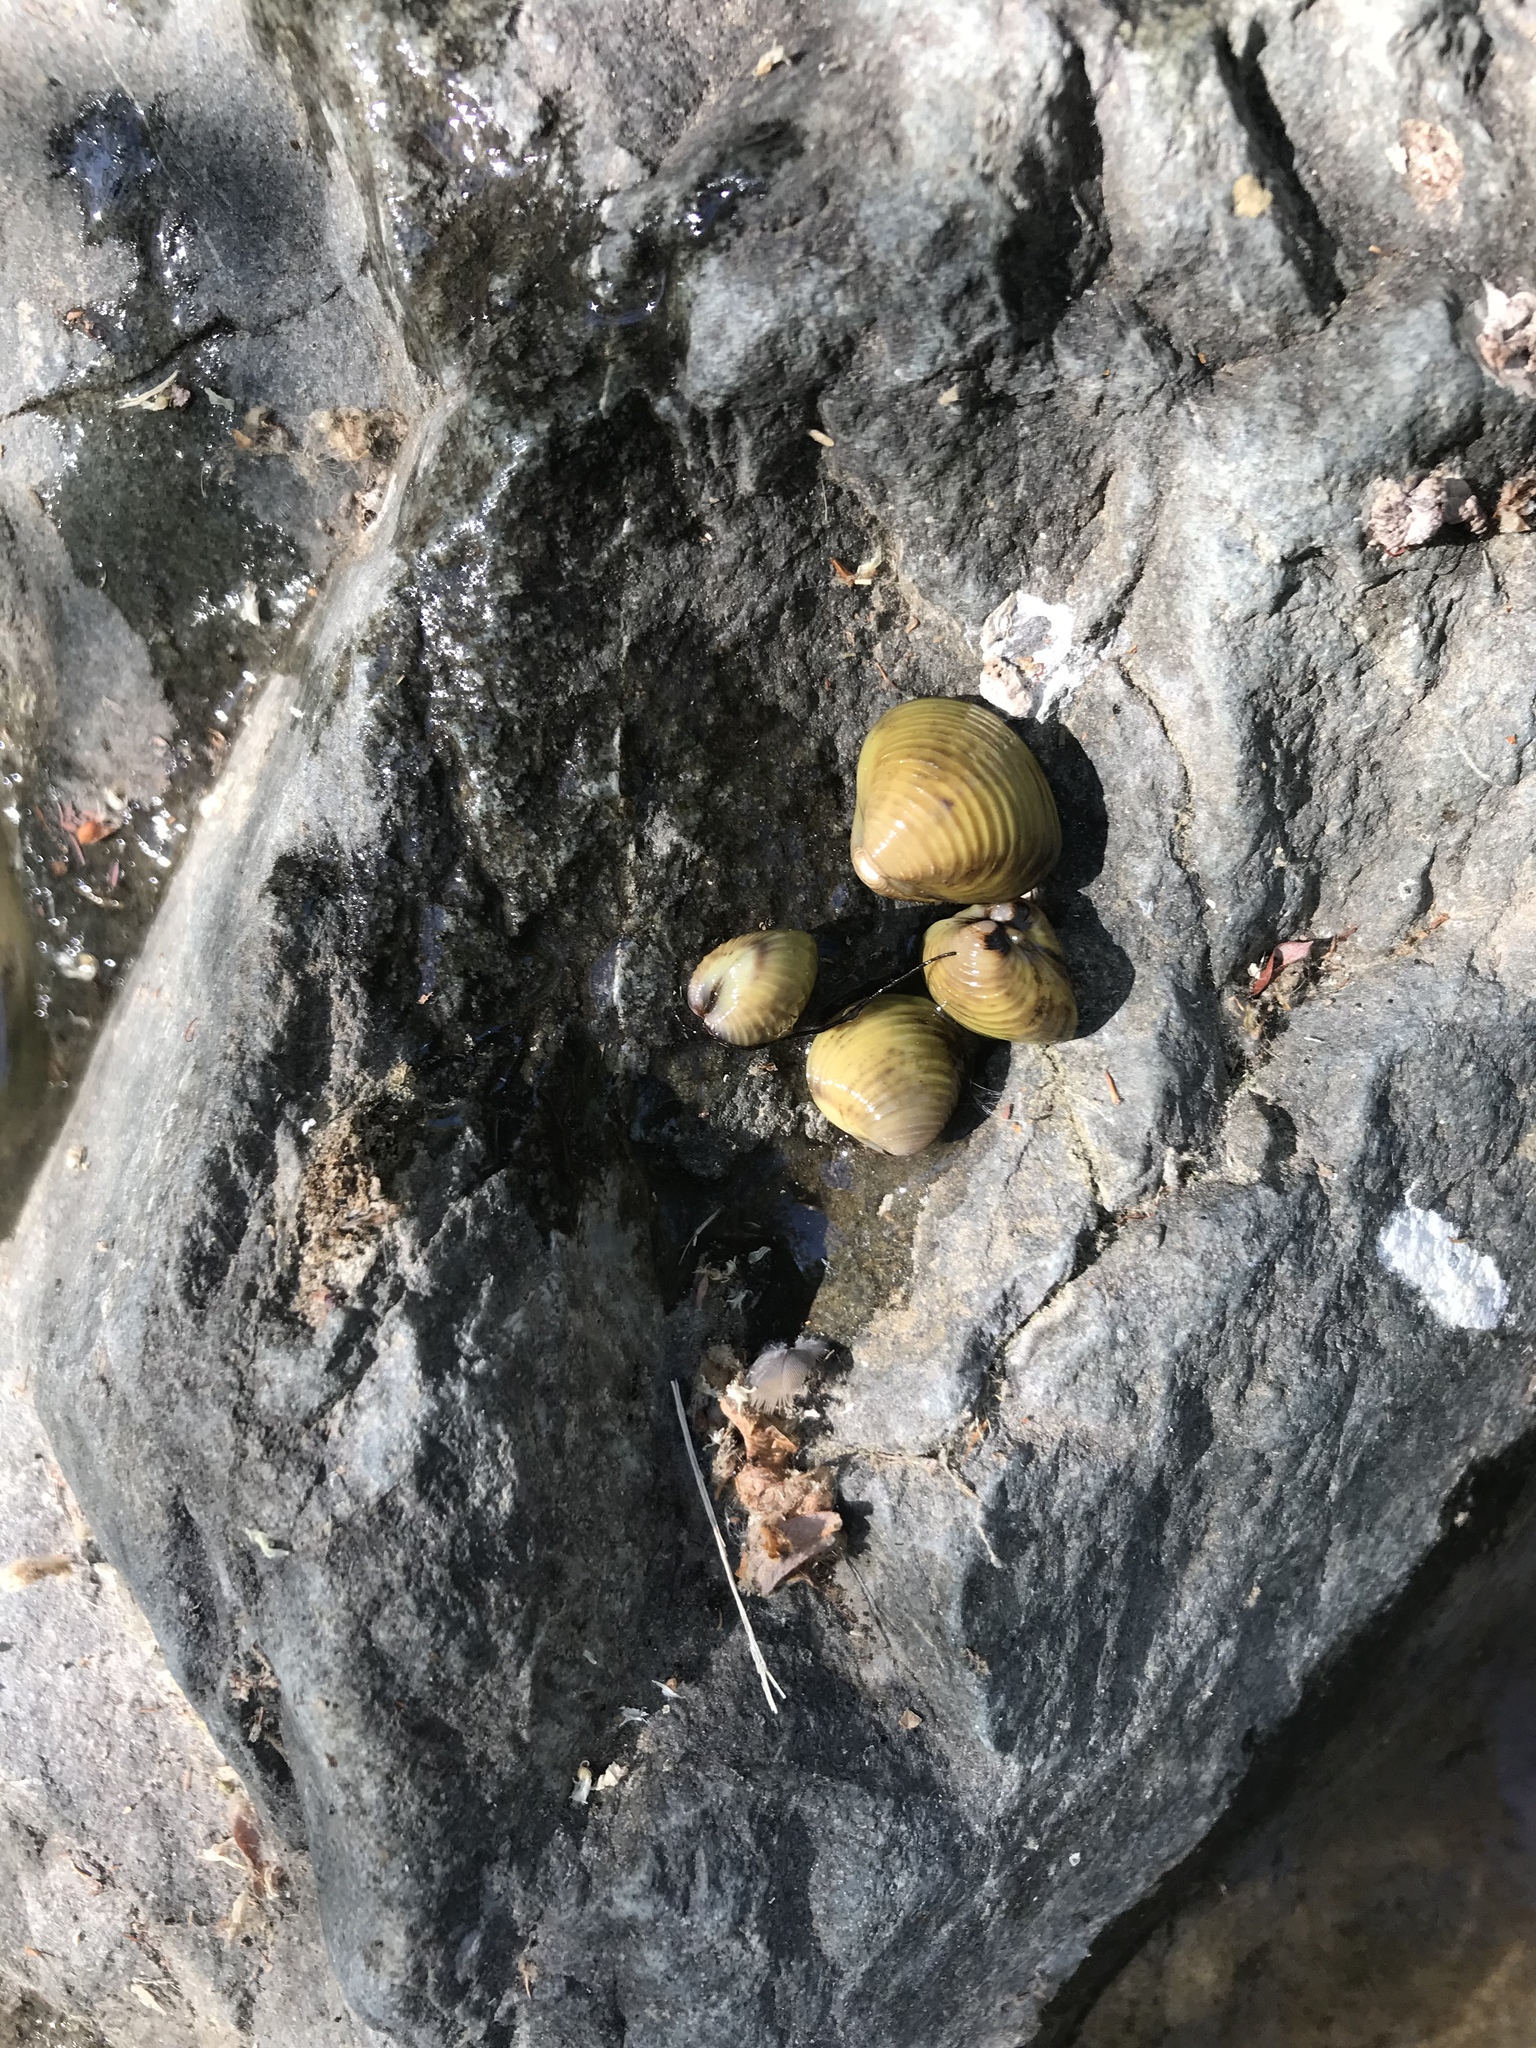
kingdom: Animalia
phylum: Mollusca
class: Bivalvia
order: Venerida
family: Cyrenidae
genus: Corbicula
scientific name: Corbicula fluminea
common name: Asian clam
